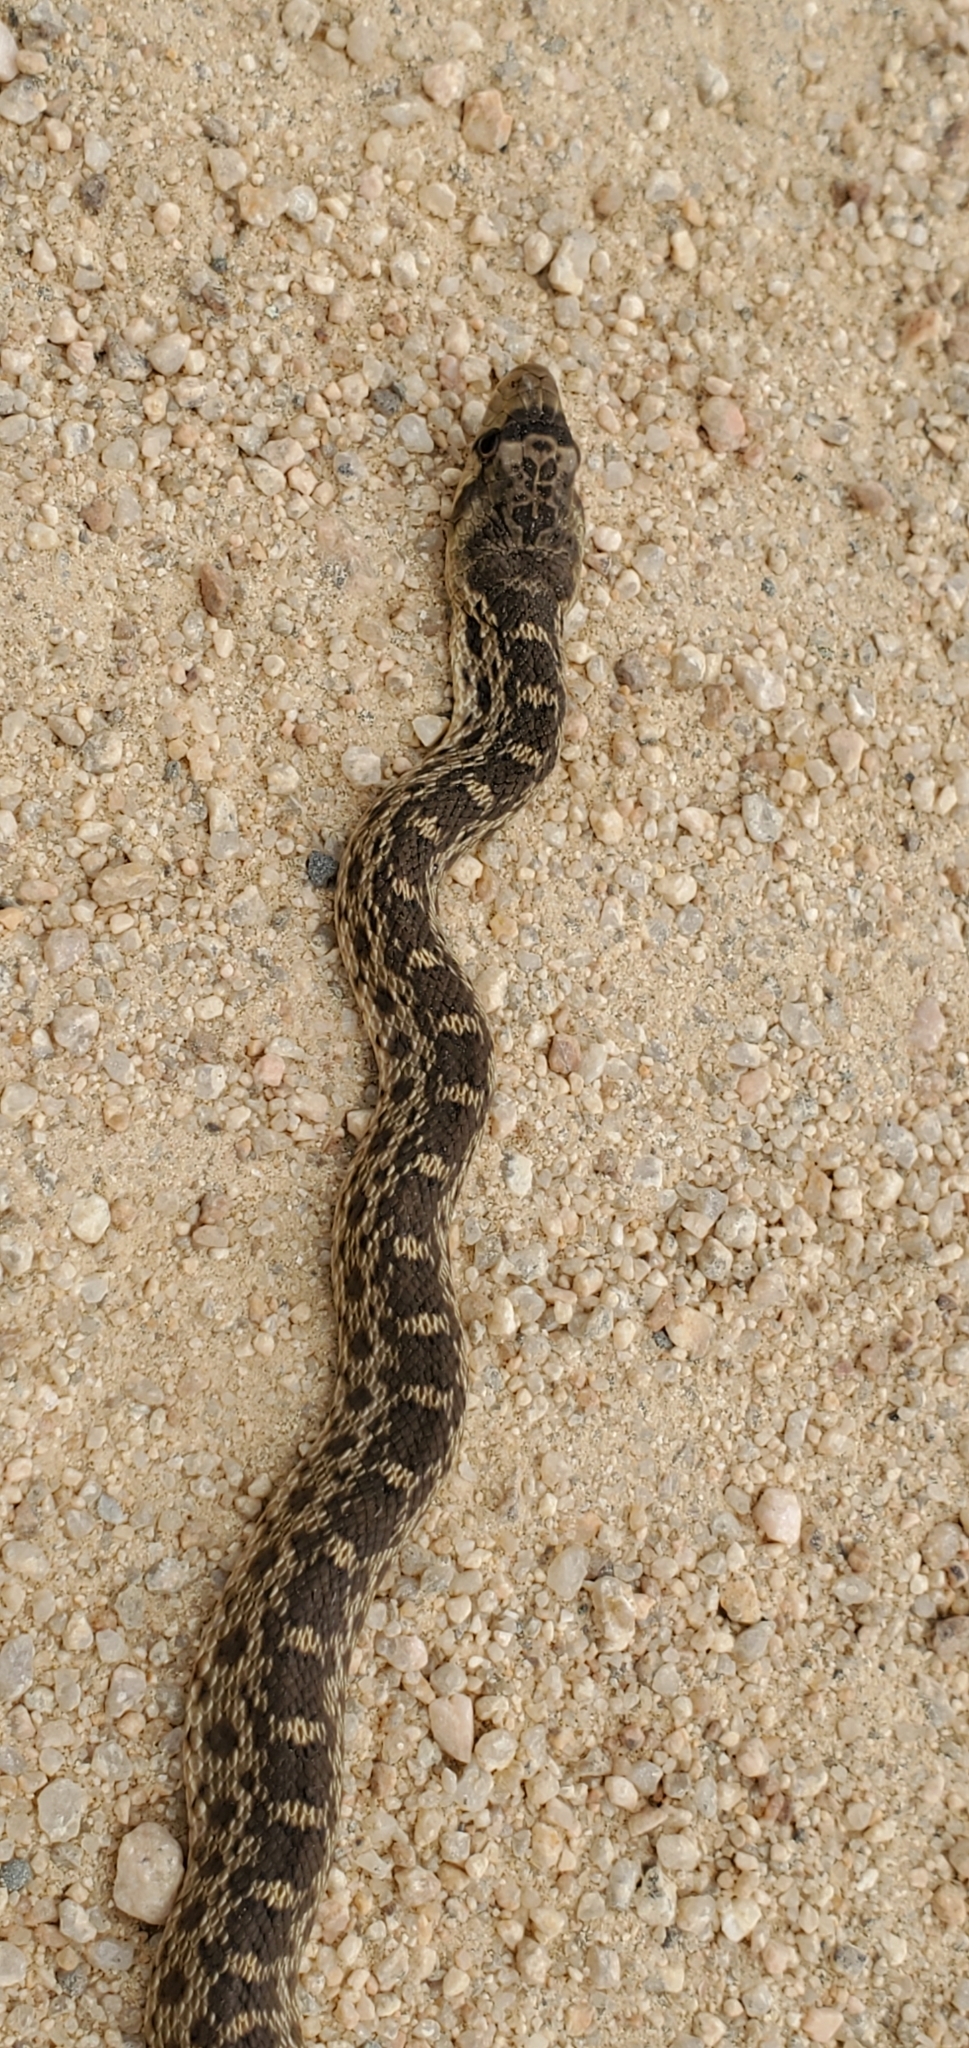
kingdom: Animalia
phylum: Chordata
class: Squamata
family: Colubridae
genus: Pituophis
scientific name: Pituophis catenifer
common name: Gopher snake
